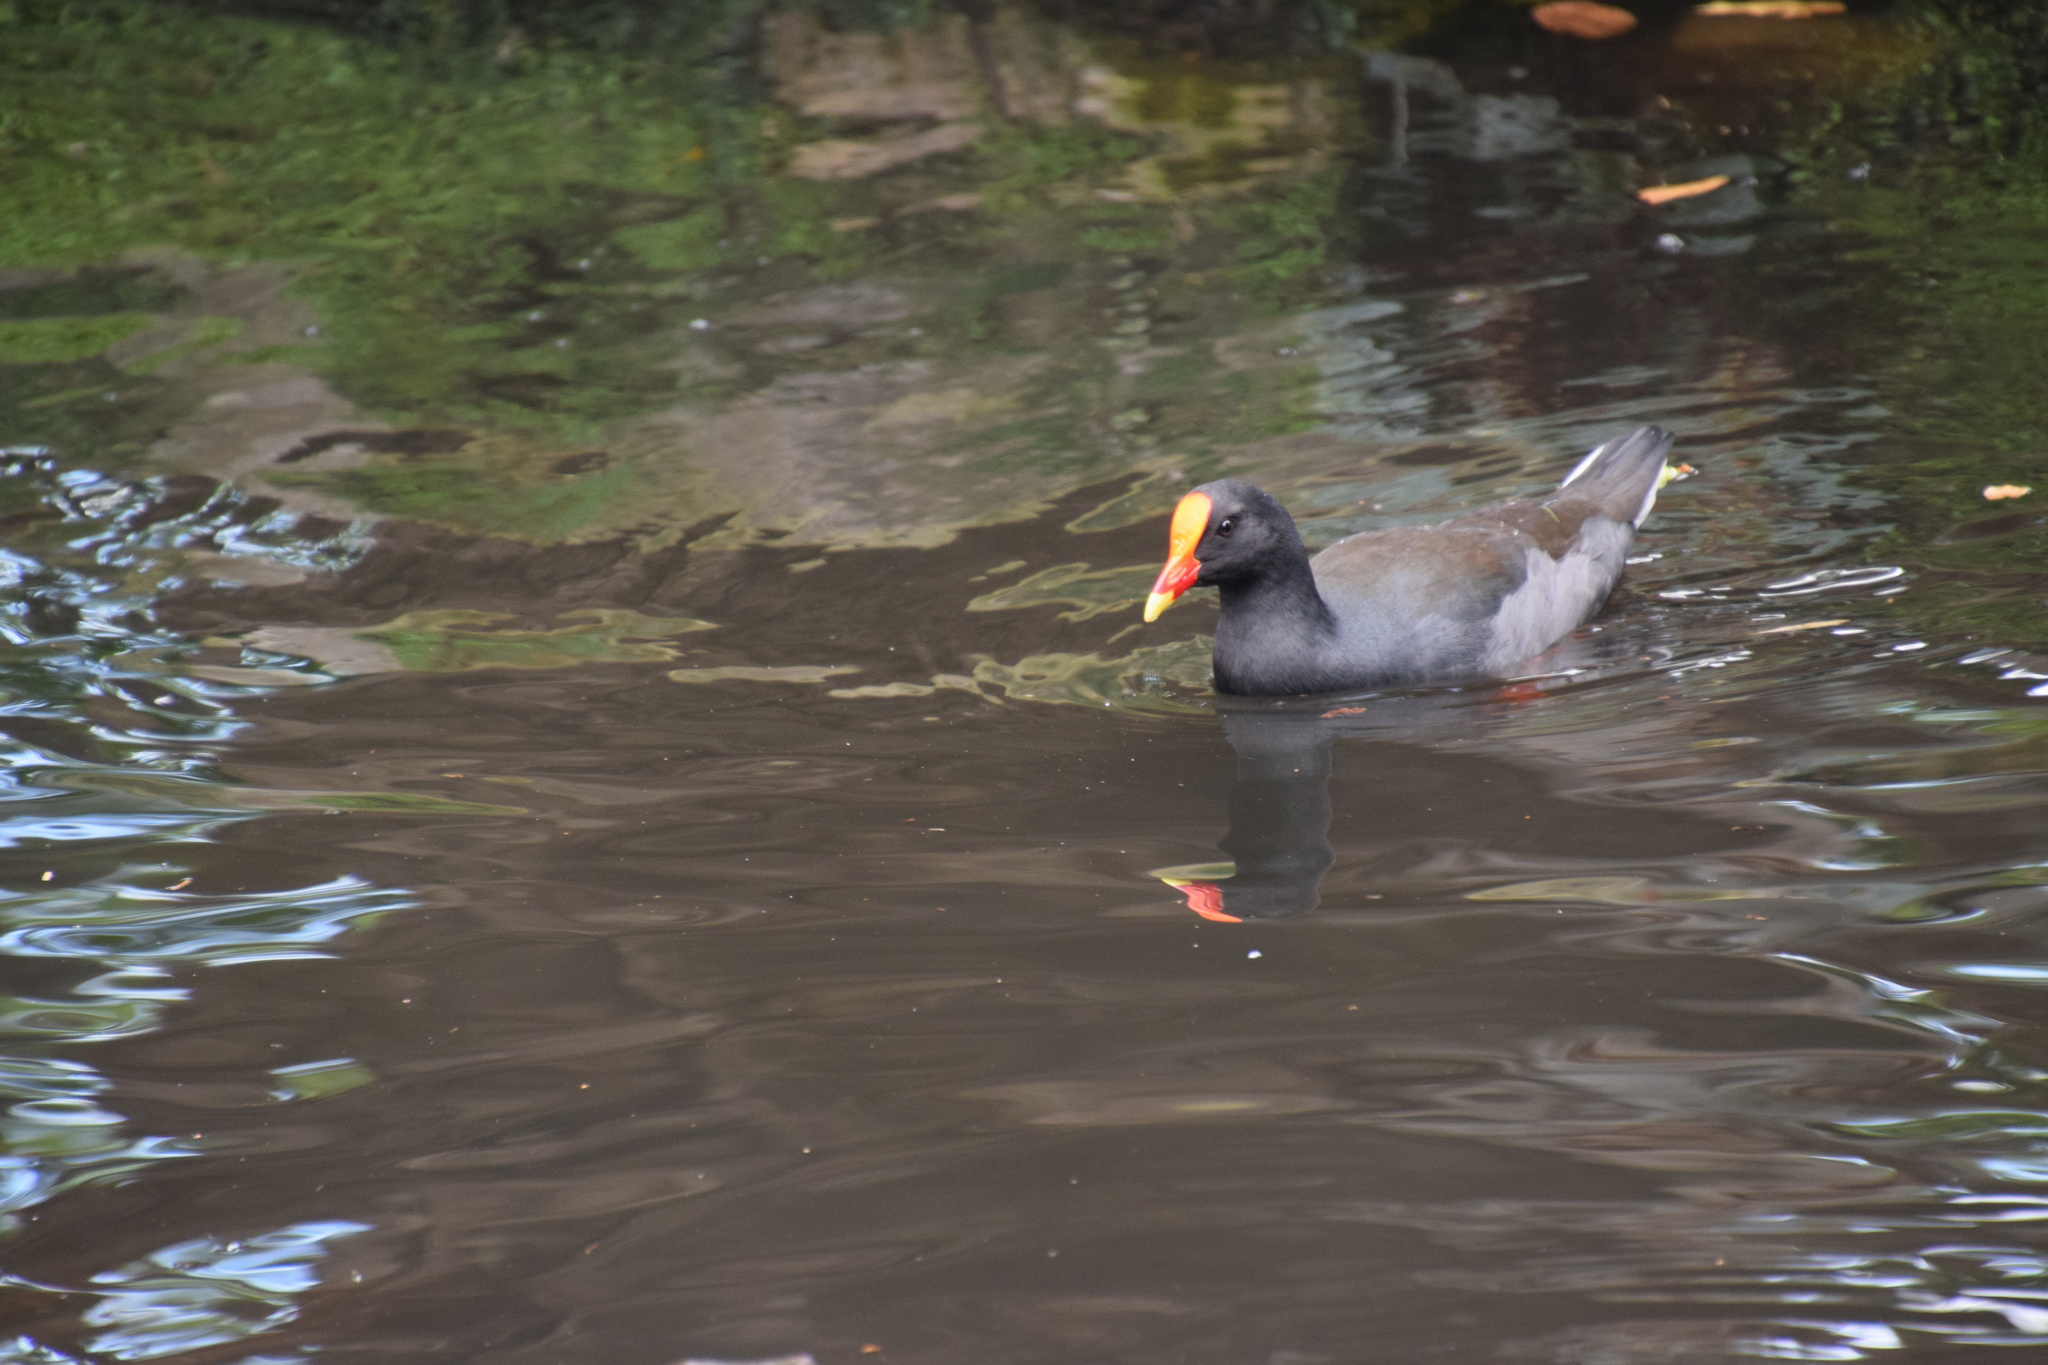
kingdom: Animalia
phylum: Chordata
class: Aves
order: Gruiformes
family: Rallidae
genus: Gallinula
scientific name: Gallinula tenebrosa
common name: Dusky moorhen
